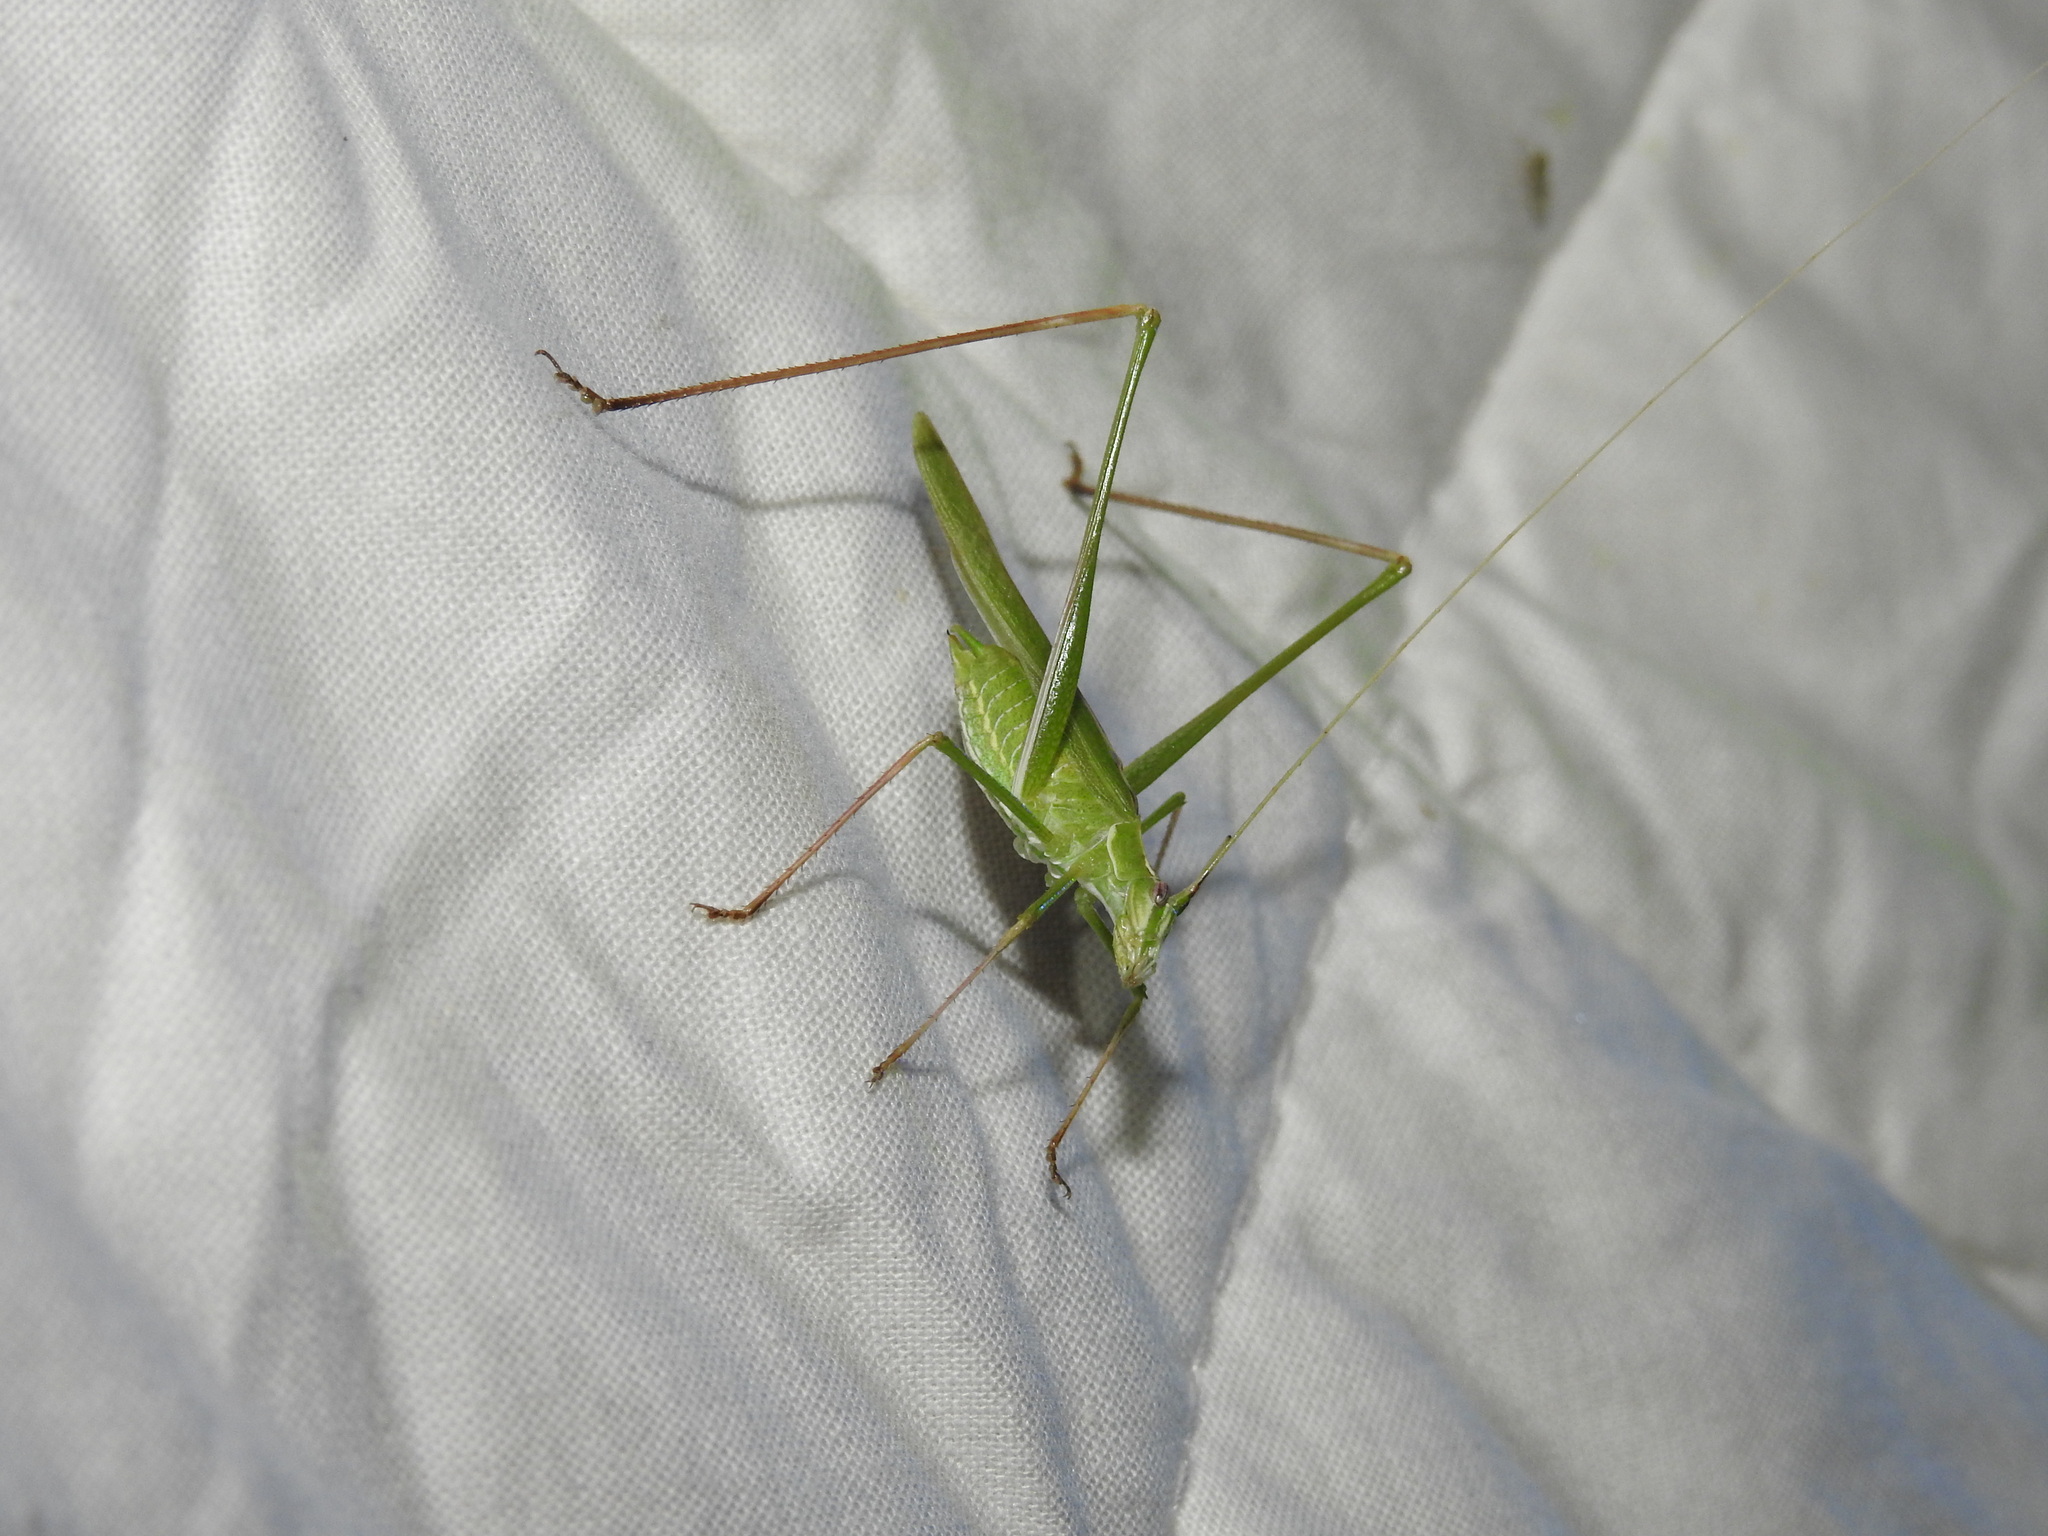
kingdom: Animalia
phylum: Arthropoda
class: Insecta
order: Orthoptera
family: Tettigoniidae
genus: Tylopsis
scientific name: Tylopsis lilifolia
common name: Lily bush-cricket
